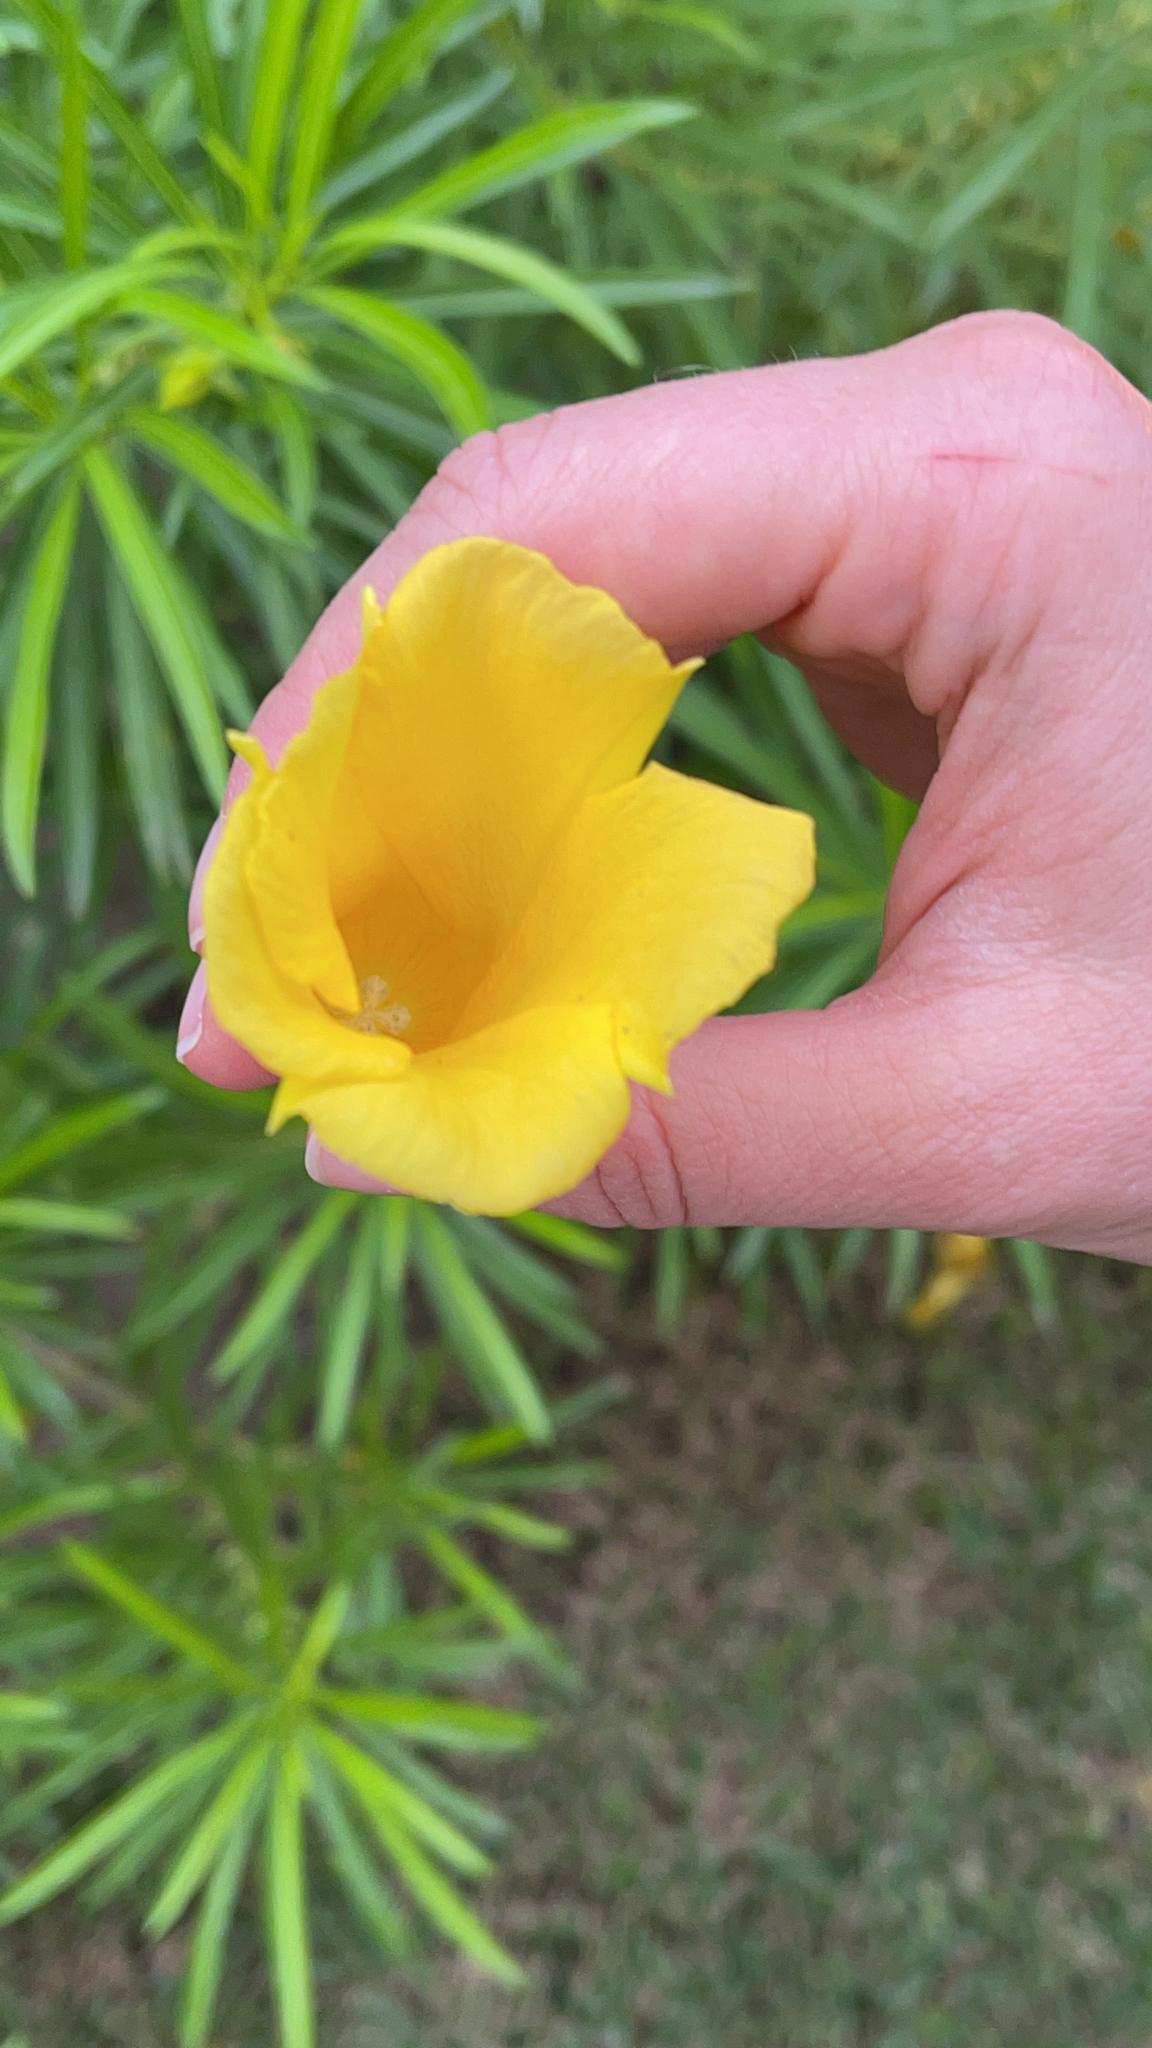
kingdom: Plantae
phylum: Tracheophyta
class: Magnoliopsida
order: Gentianales
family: Apocynaceae
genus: Cascabela
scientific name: Cascabela thevetia
